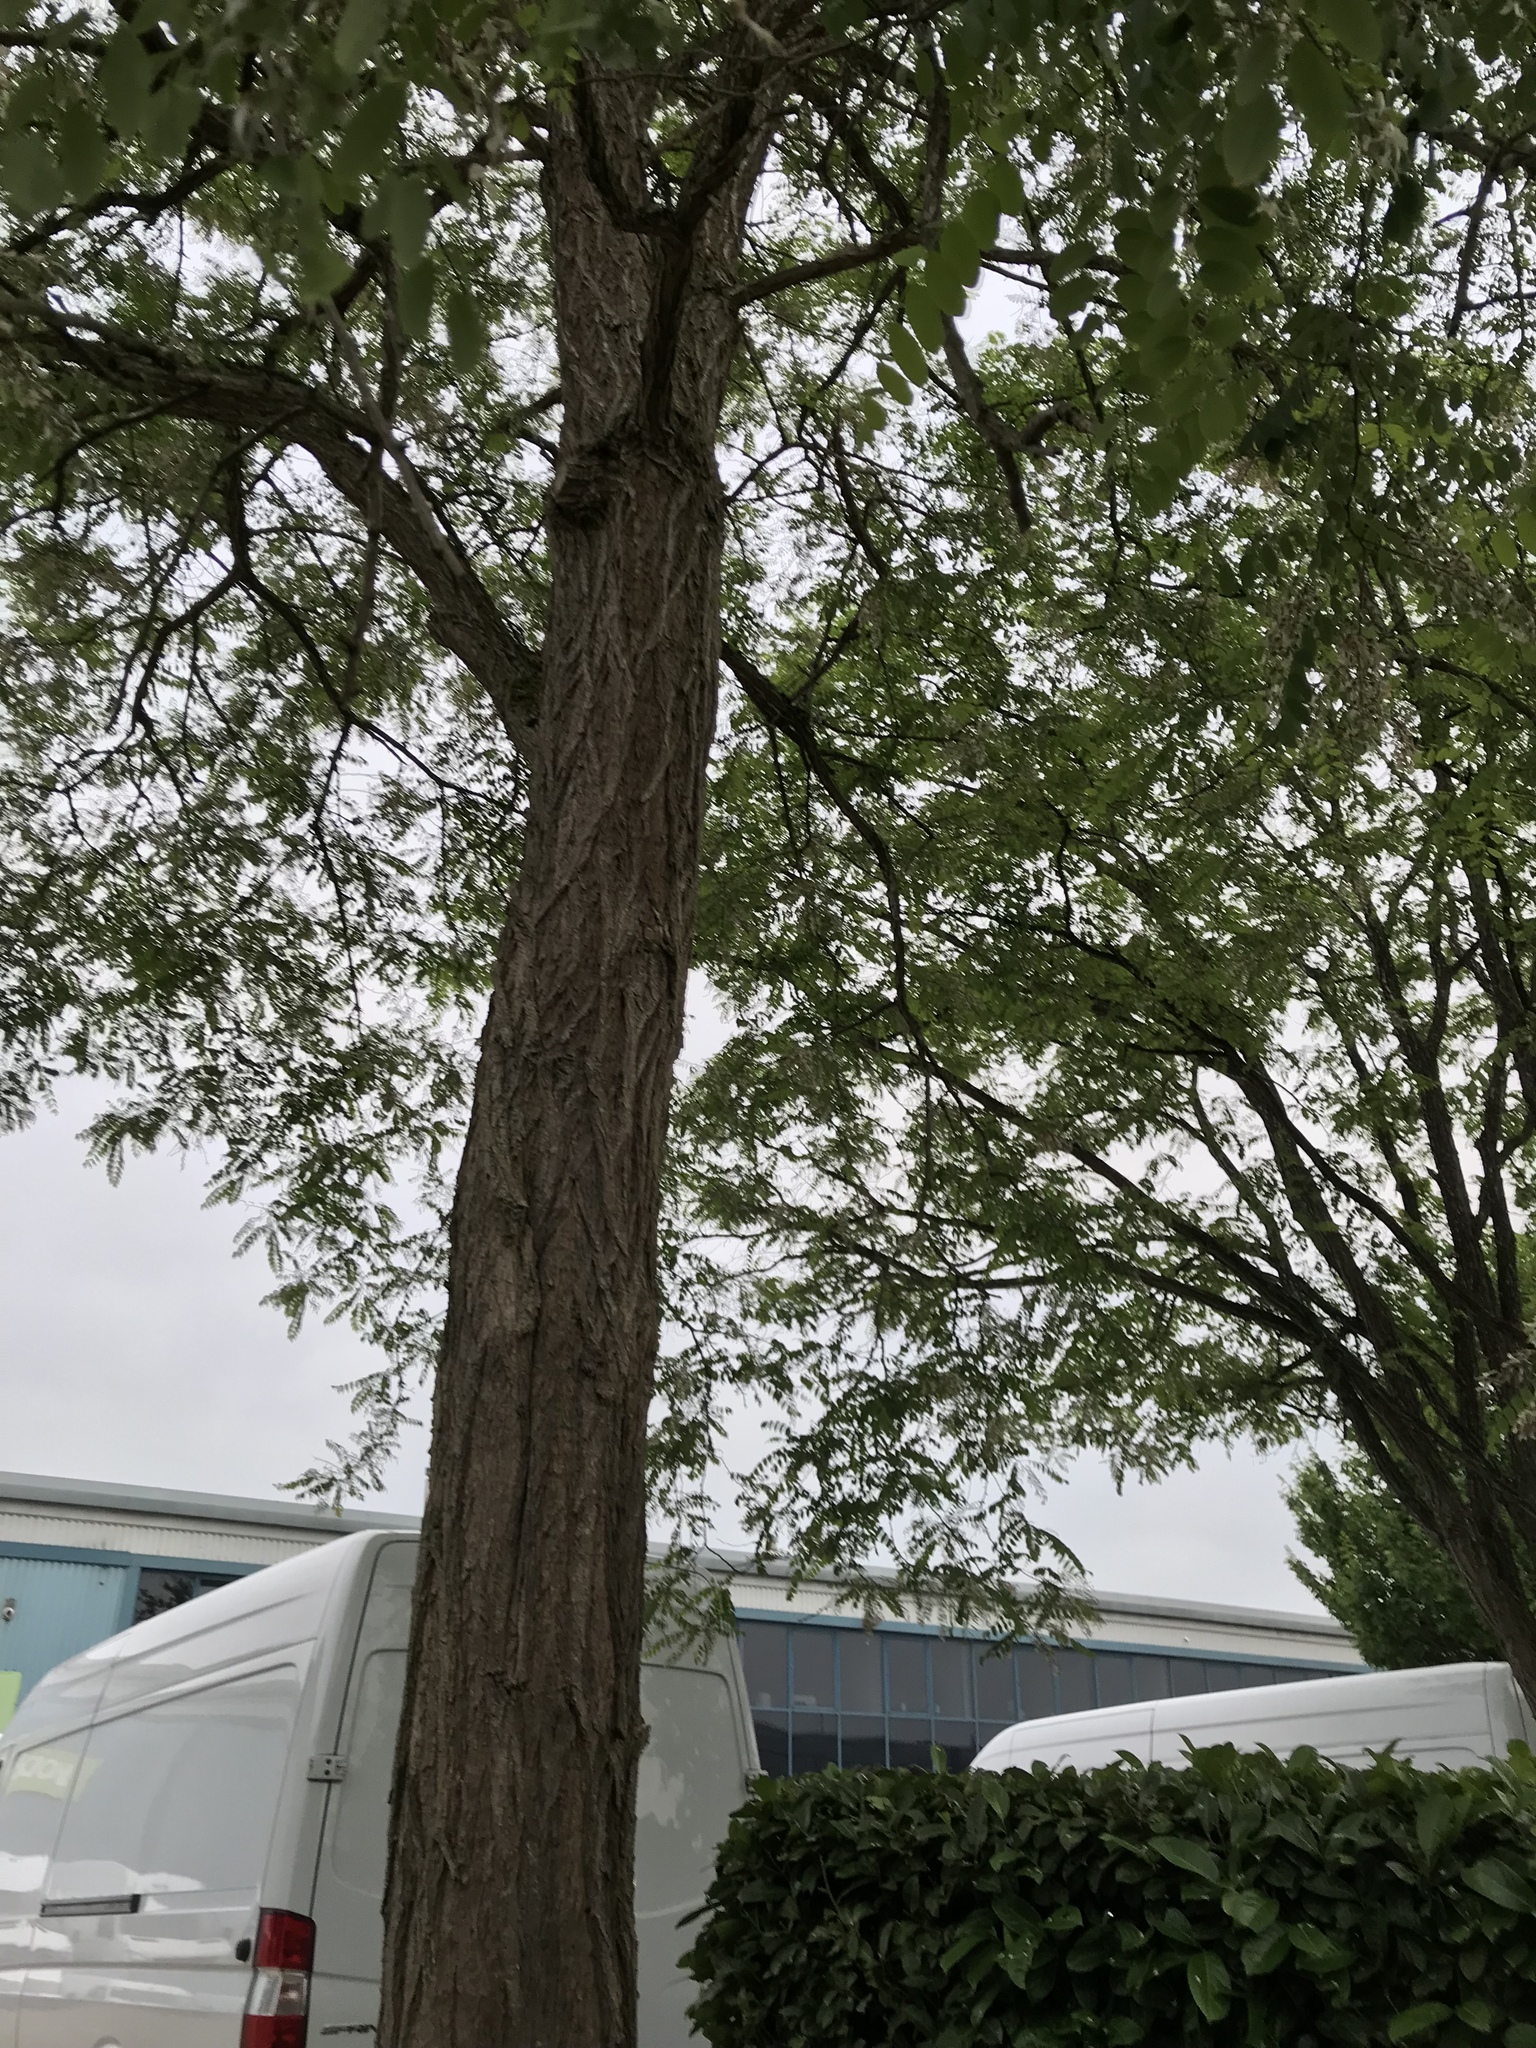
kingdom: Plantae
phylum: Tracheophyta
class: Magnoliopsida
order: Fabales
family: Fabaceae
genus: Robinia
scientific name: Robinia pseudoacacia
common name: Black locust
